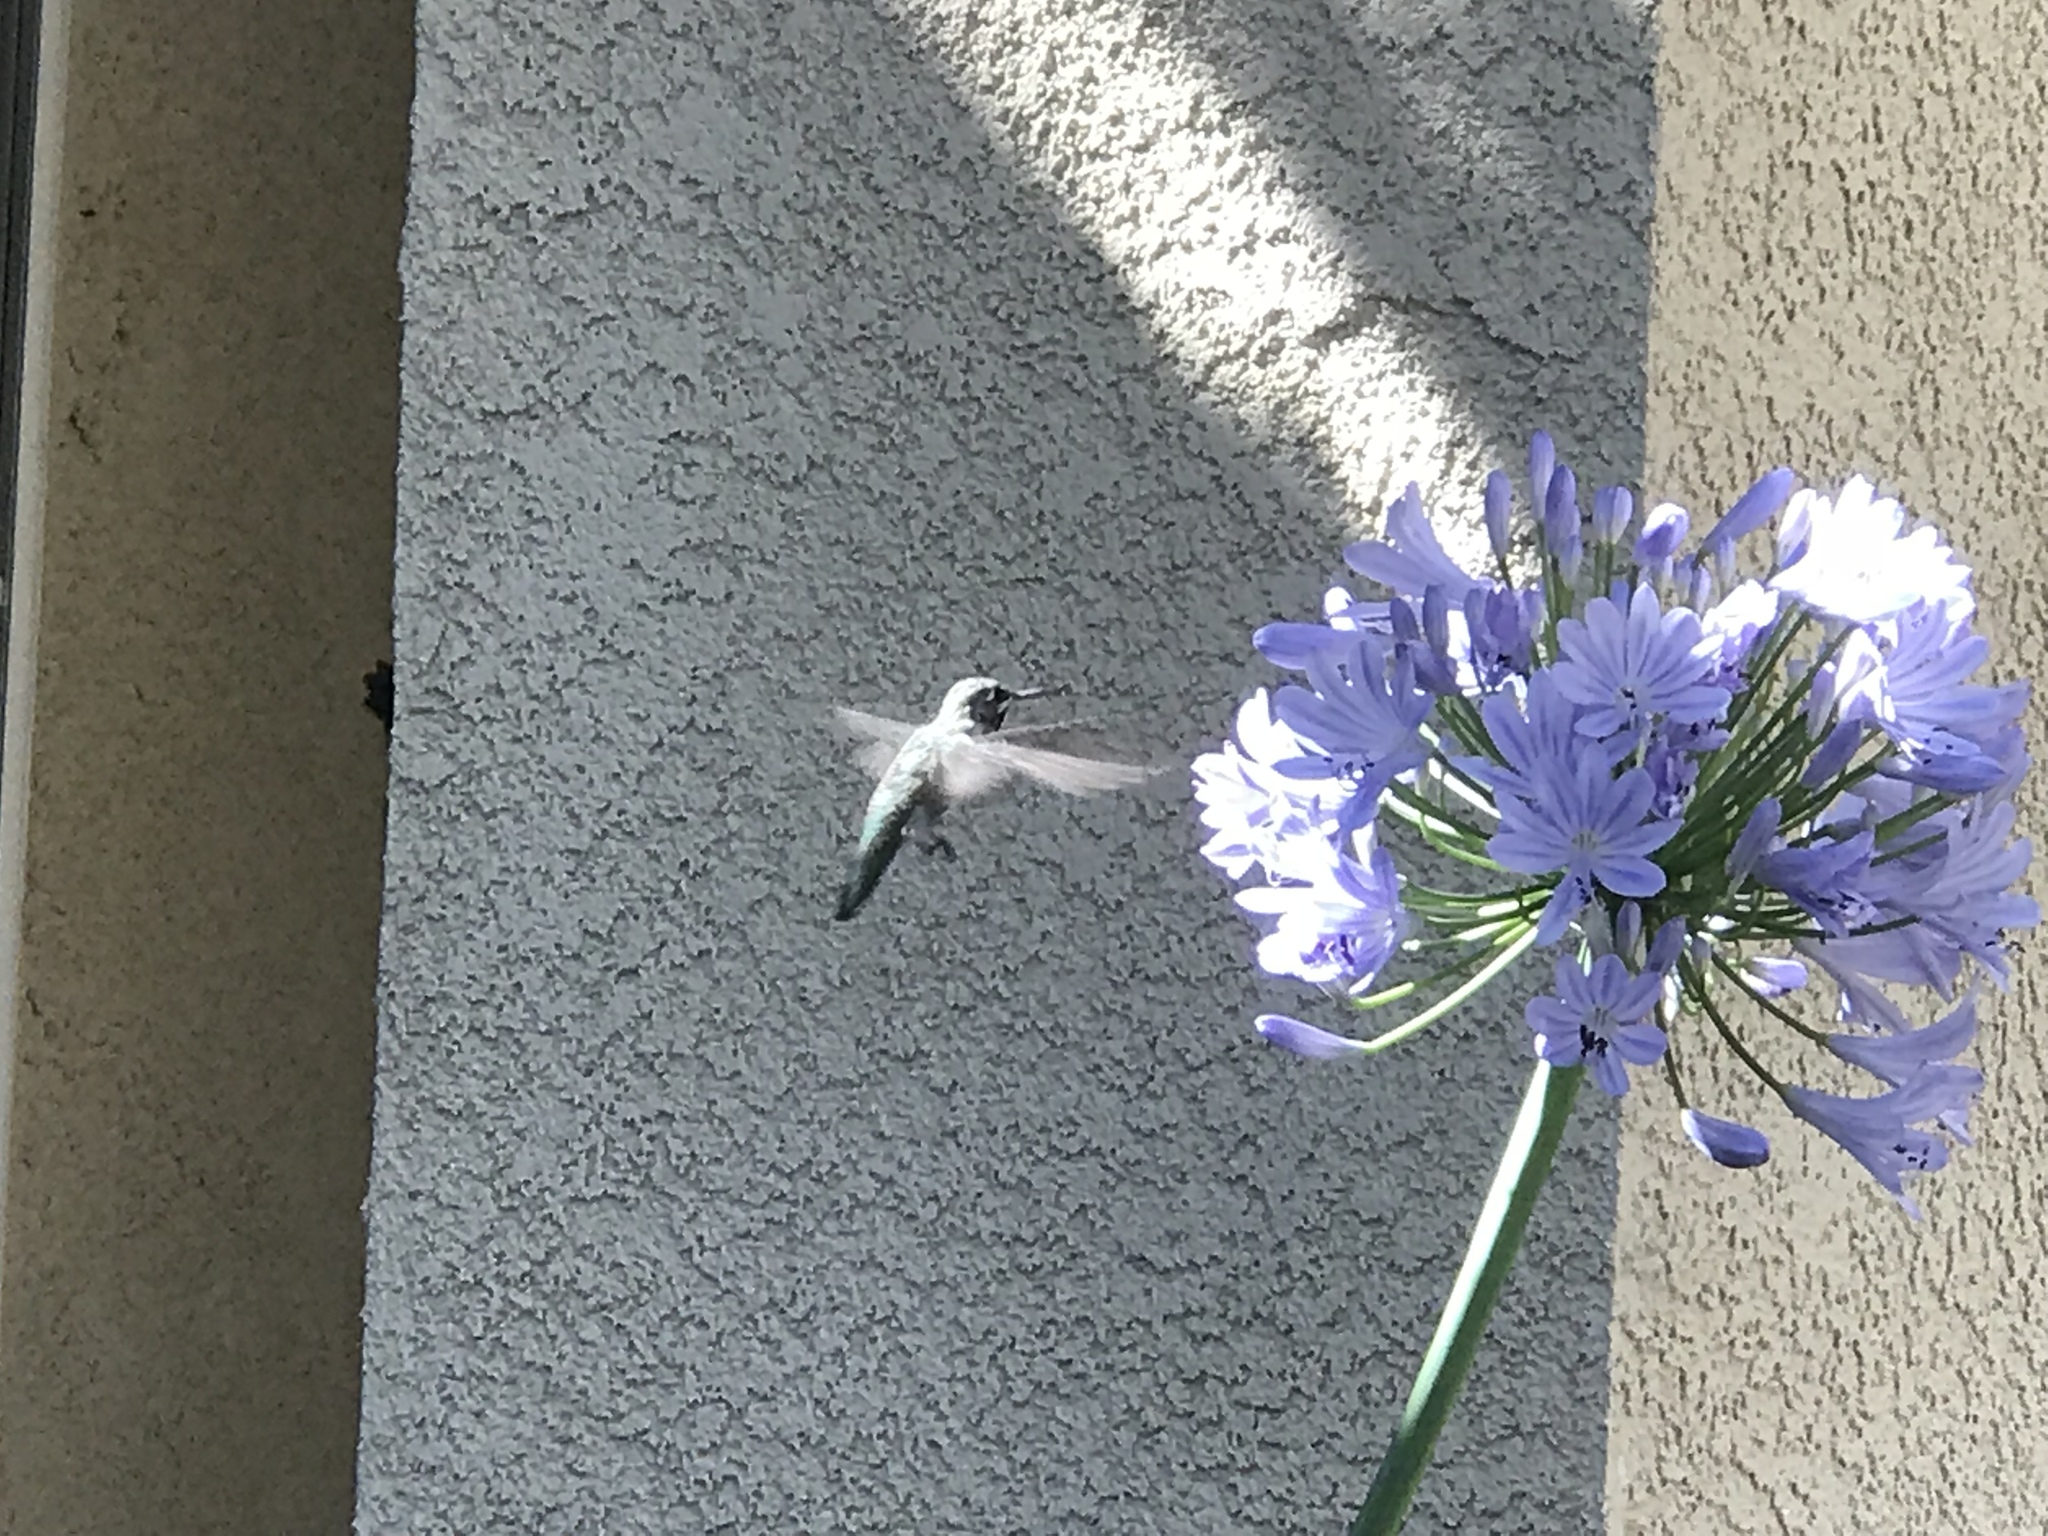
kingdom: Animalia
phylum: Chordata
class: Aves
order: Apodiformes
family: Trochilidae
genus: Calypte
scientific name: Calypte anna
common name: Anna's hummingbird
